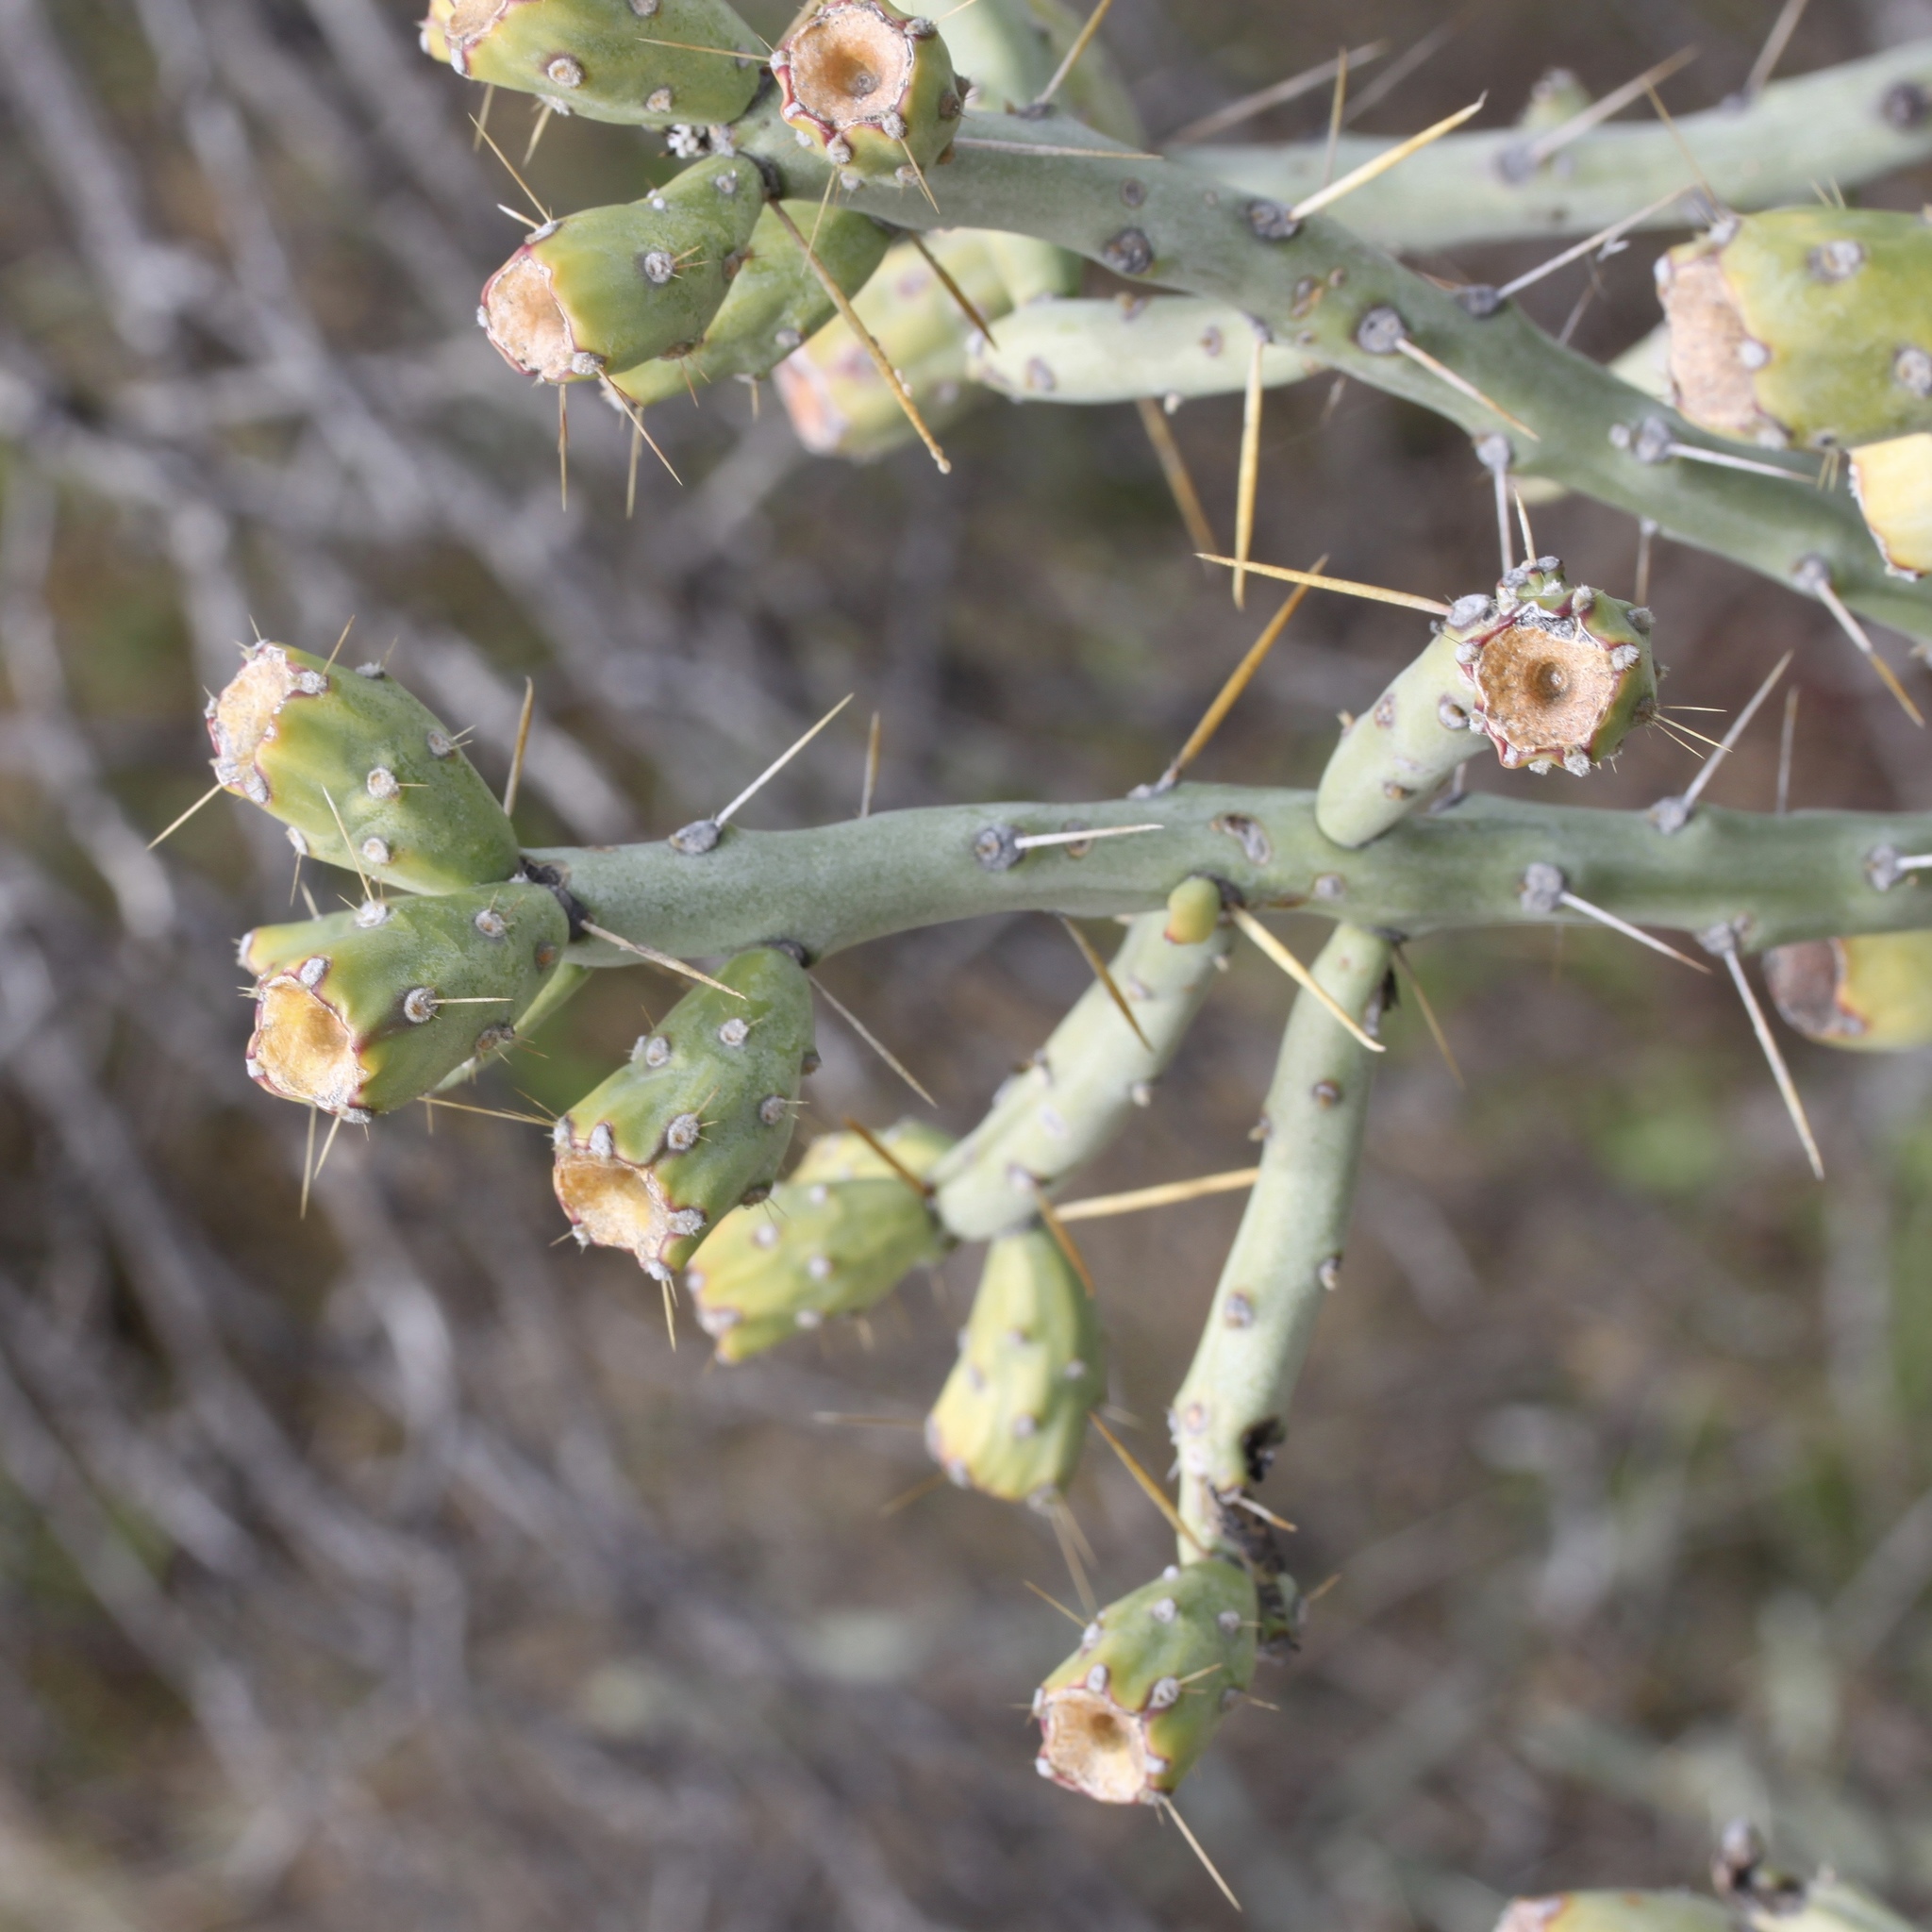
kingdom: Plantae
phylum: Tracheophyta
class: Magnoliopsida
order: Caryophyllales
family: Cactaceae
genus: Cylindropuntia
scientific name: Cylindropuntia arbuscula
